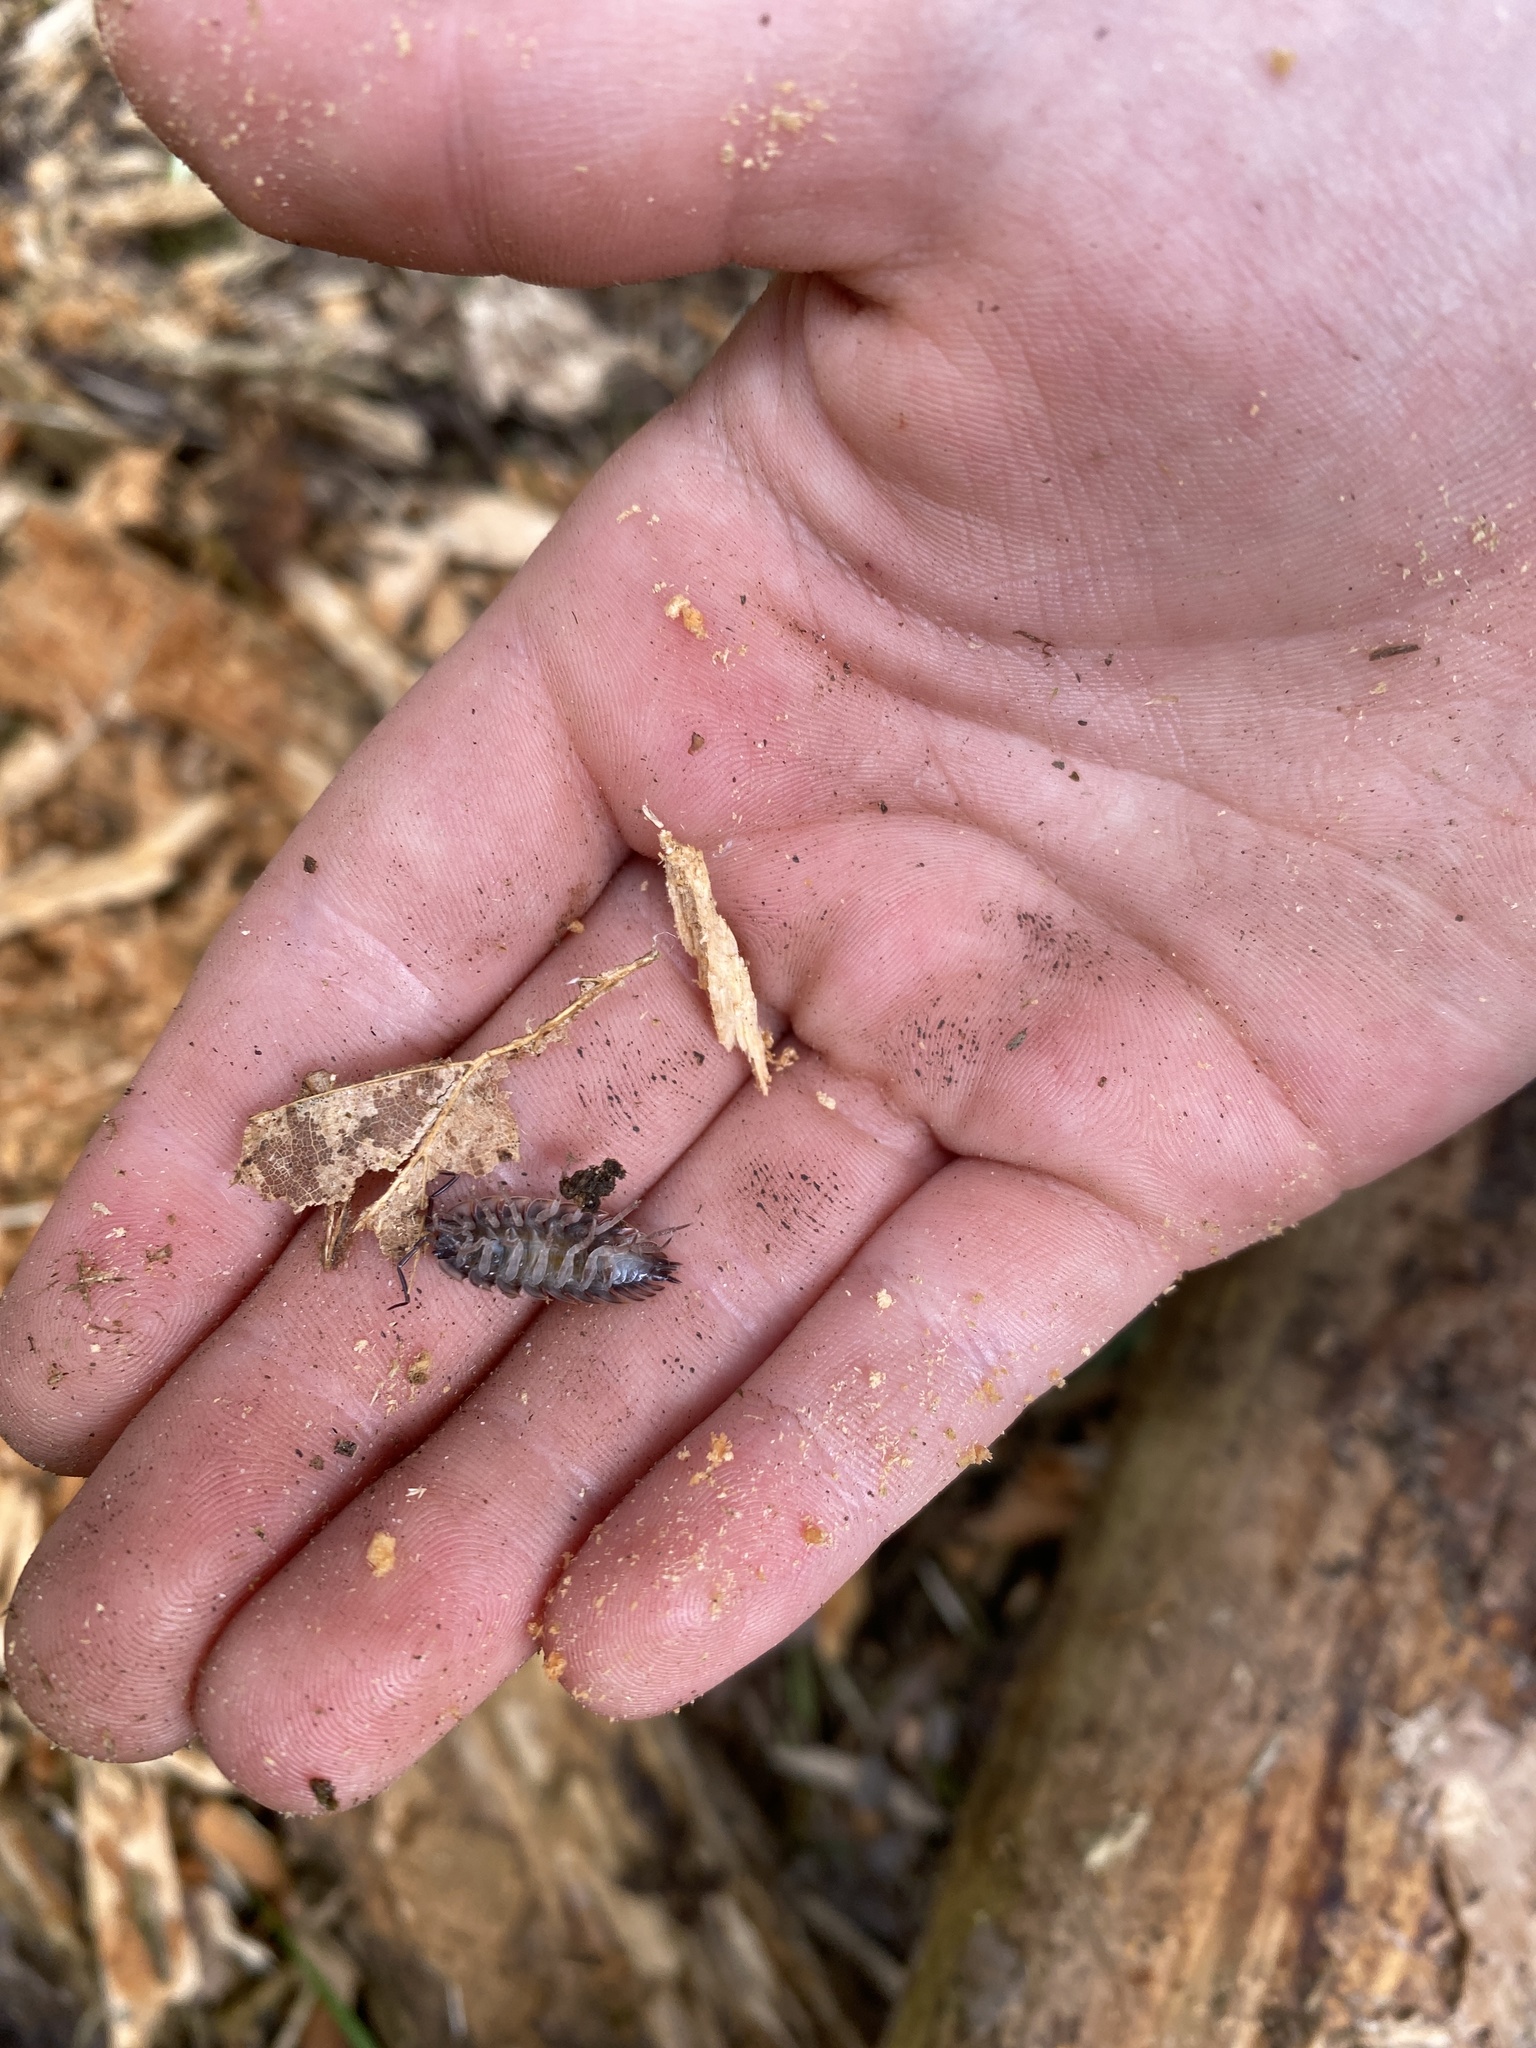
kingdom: Animalia
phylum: Arthropoda
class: Malacostraca
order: Isopoda
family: Oniscidae
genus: Oniscus
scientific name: Oniscus asellus
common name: Common shiny woodlouse
